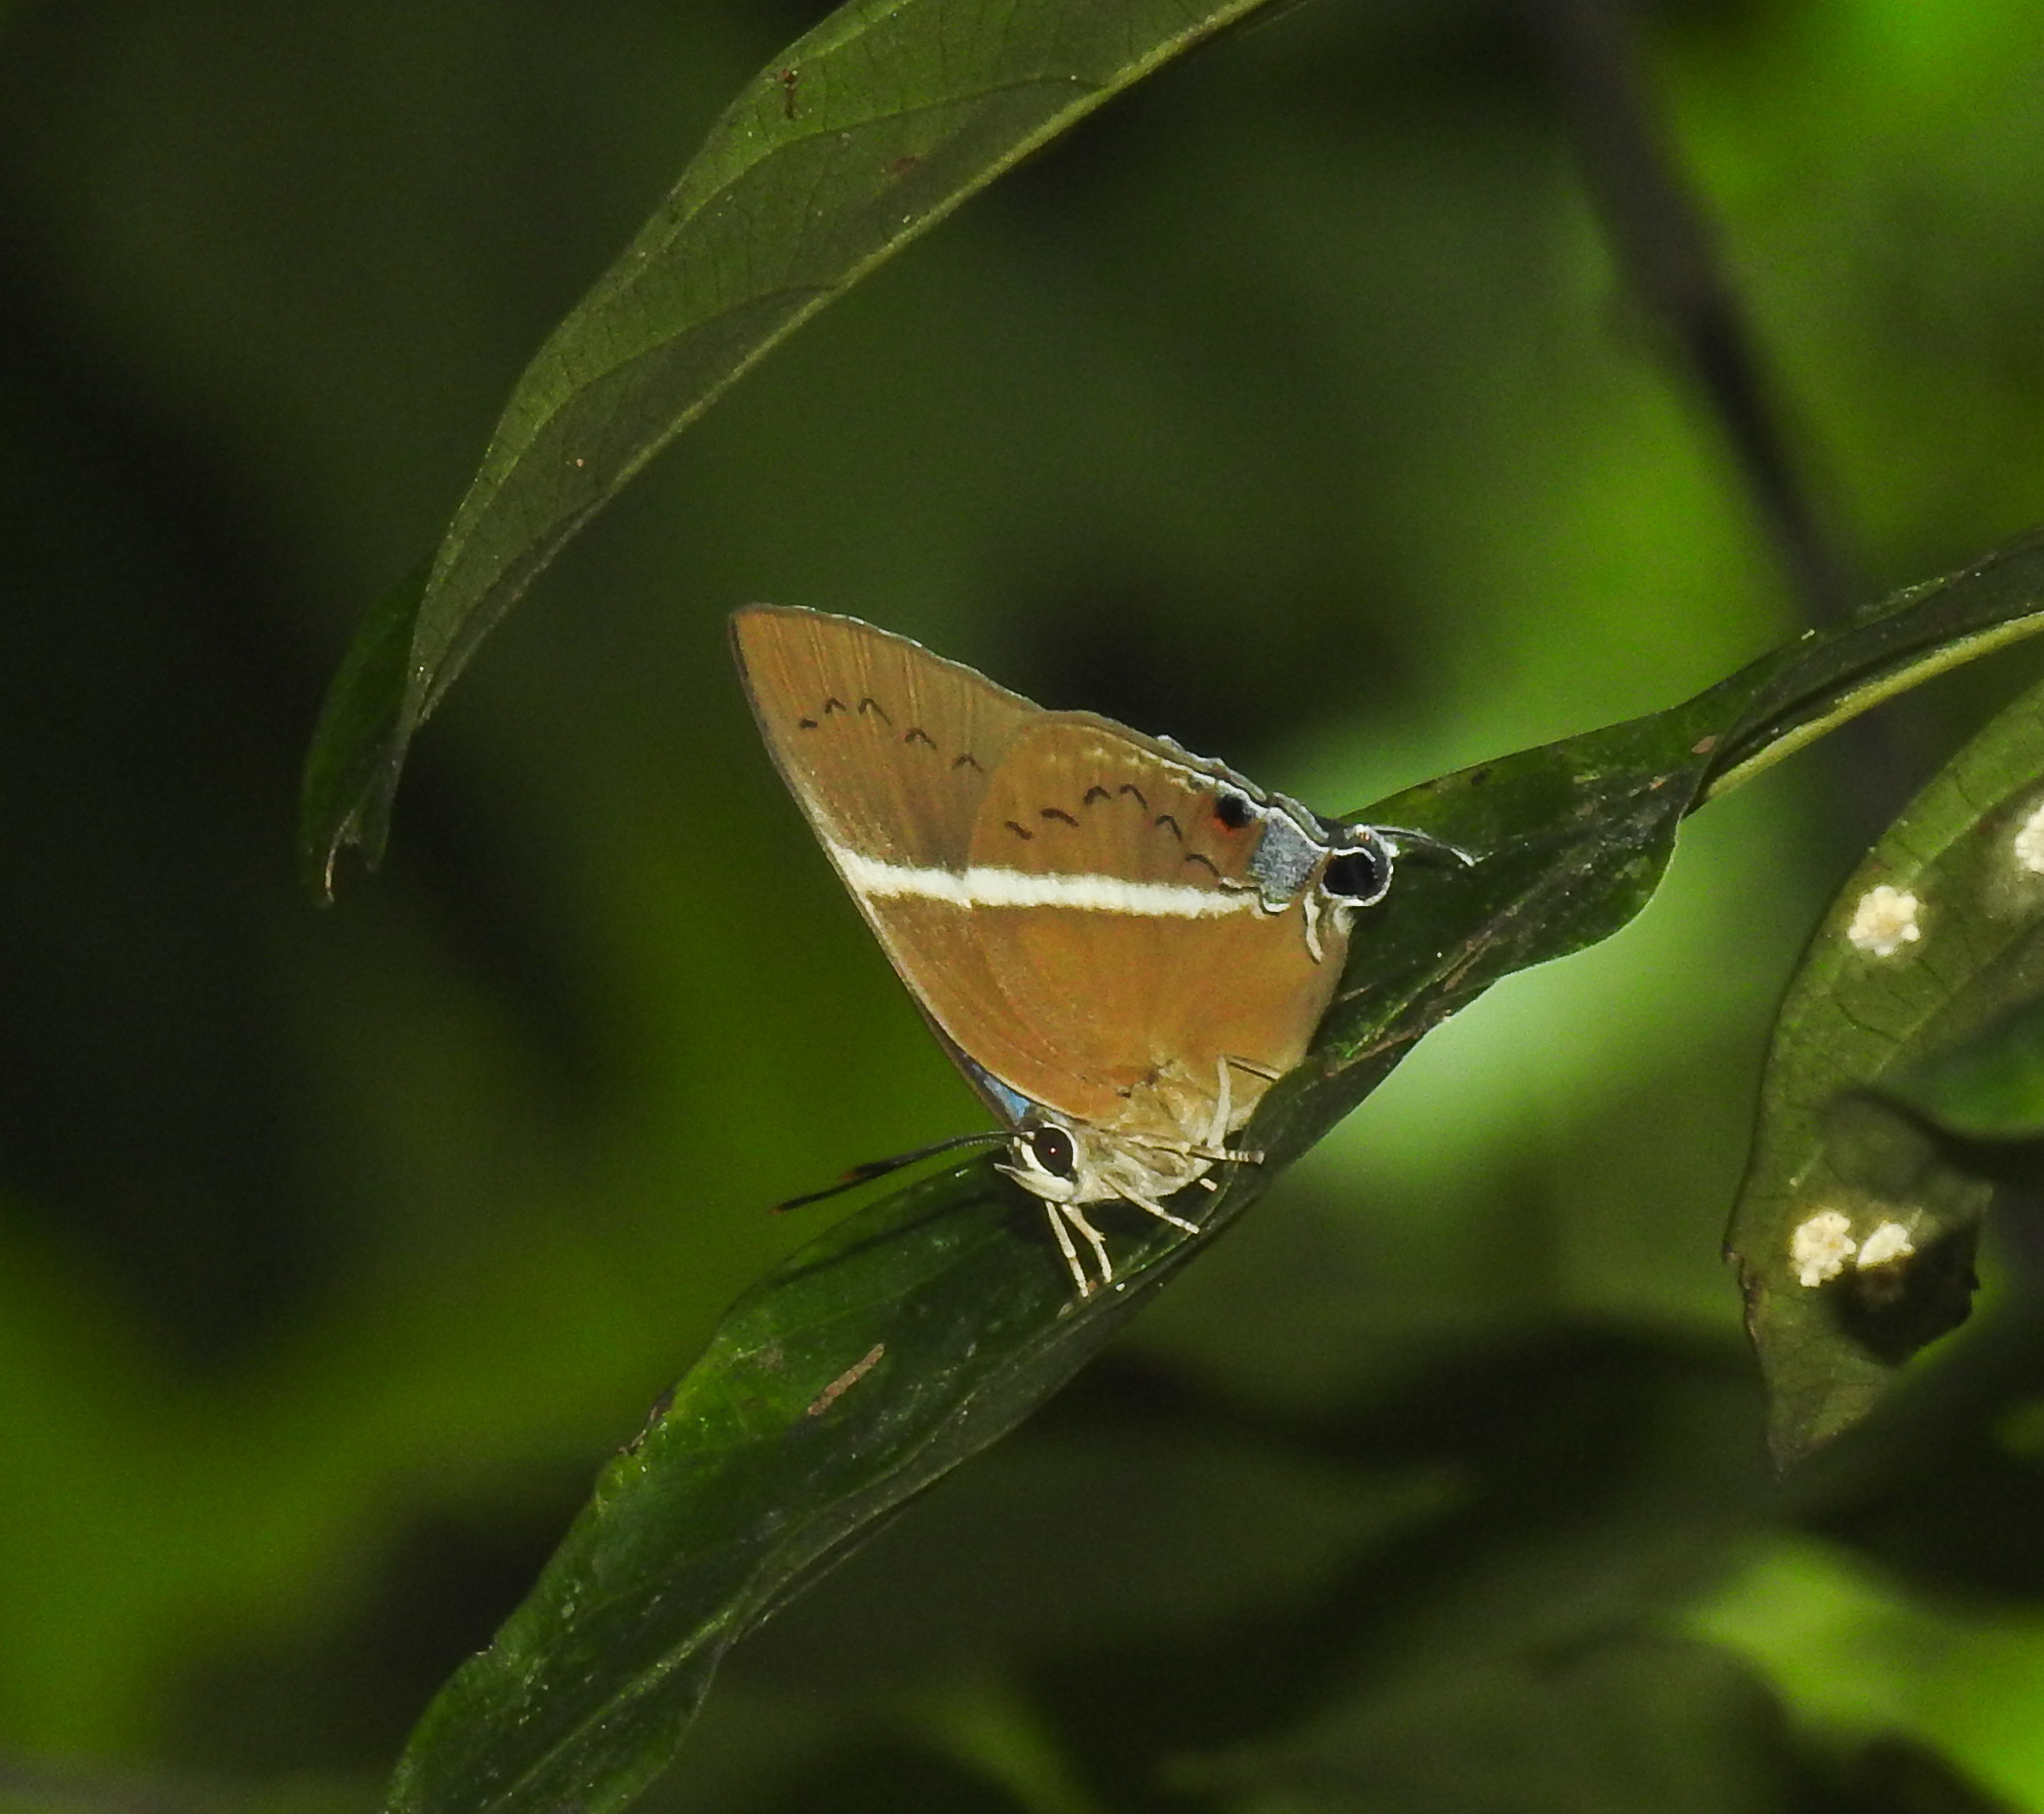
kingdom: Animalia
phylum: Arthropoda
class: Insecta
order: Lepidoptera
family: Lycaenidae
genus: Dacalana
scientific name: Dacalana pencilligera
